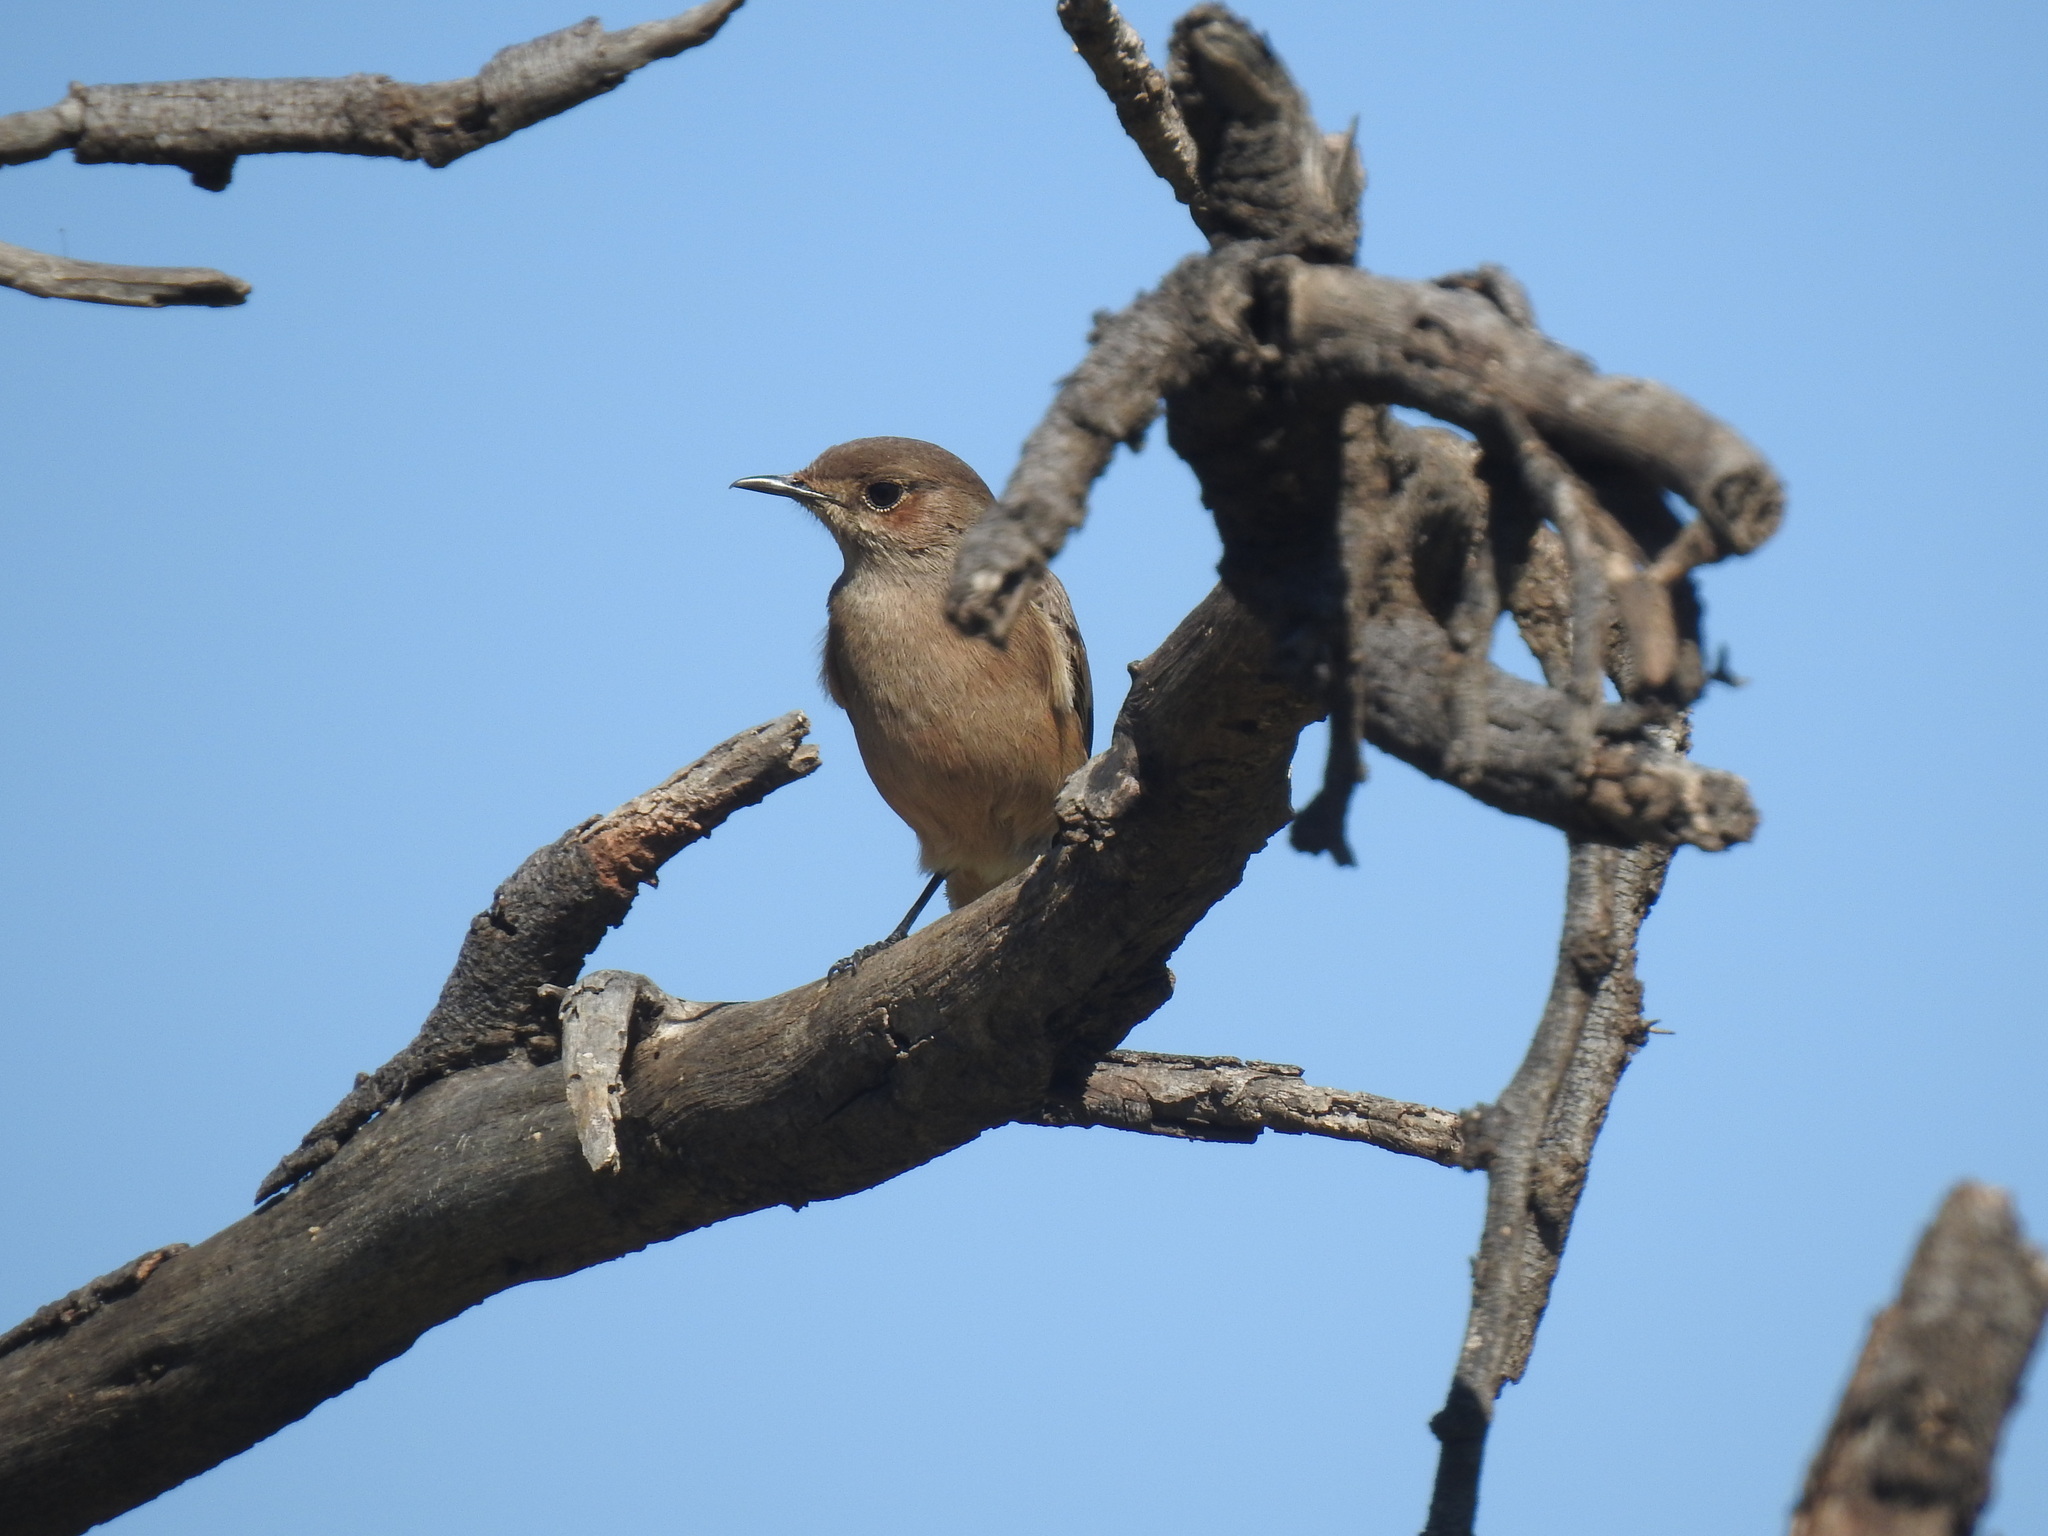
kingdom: Animalia
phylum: Chordata
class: Aves
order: Passeriformes
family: Muscicapidae
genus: Oenanthe
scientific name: Oenanthe familiaris
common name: Familiar chat
